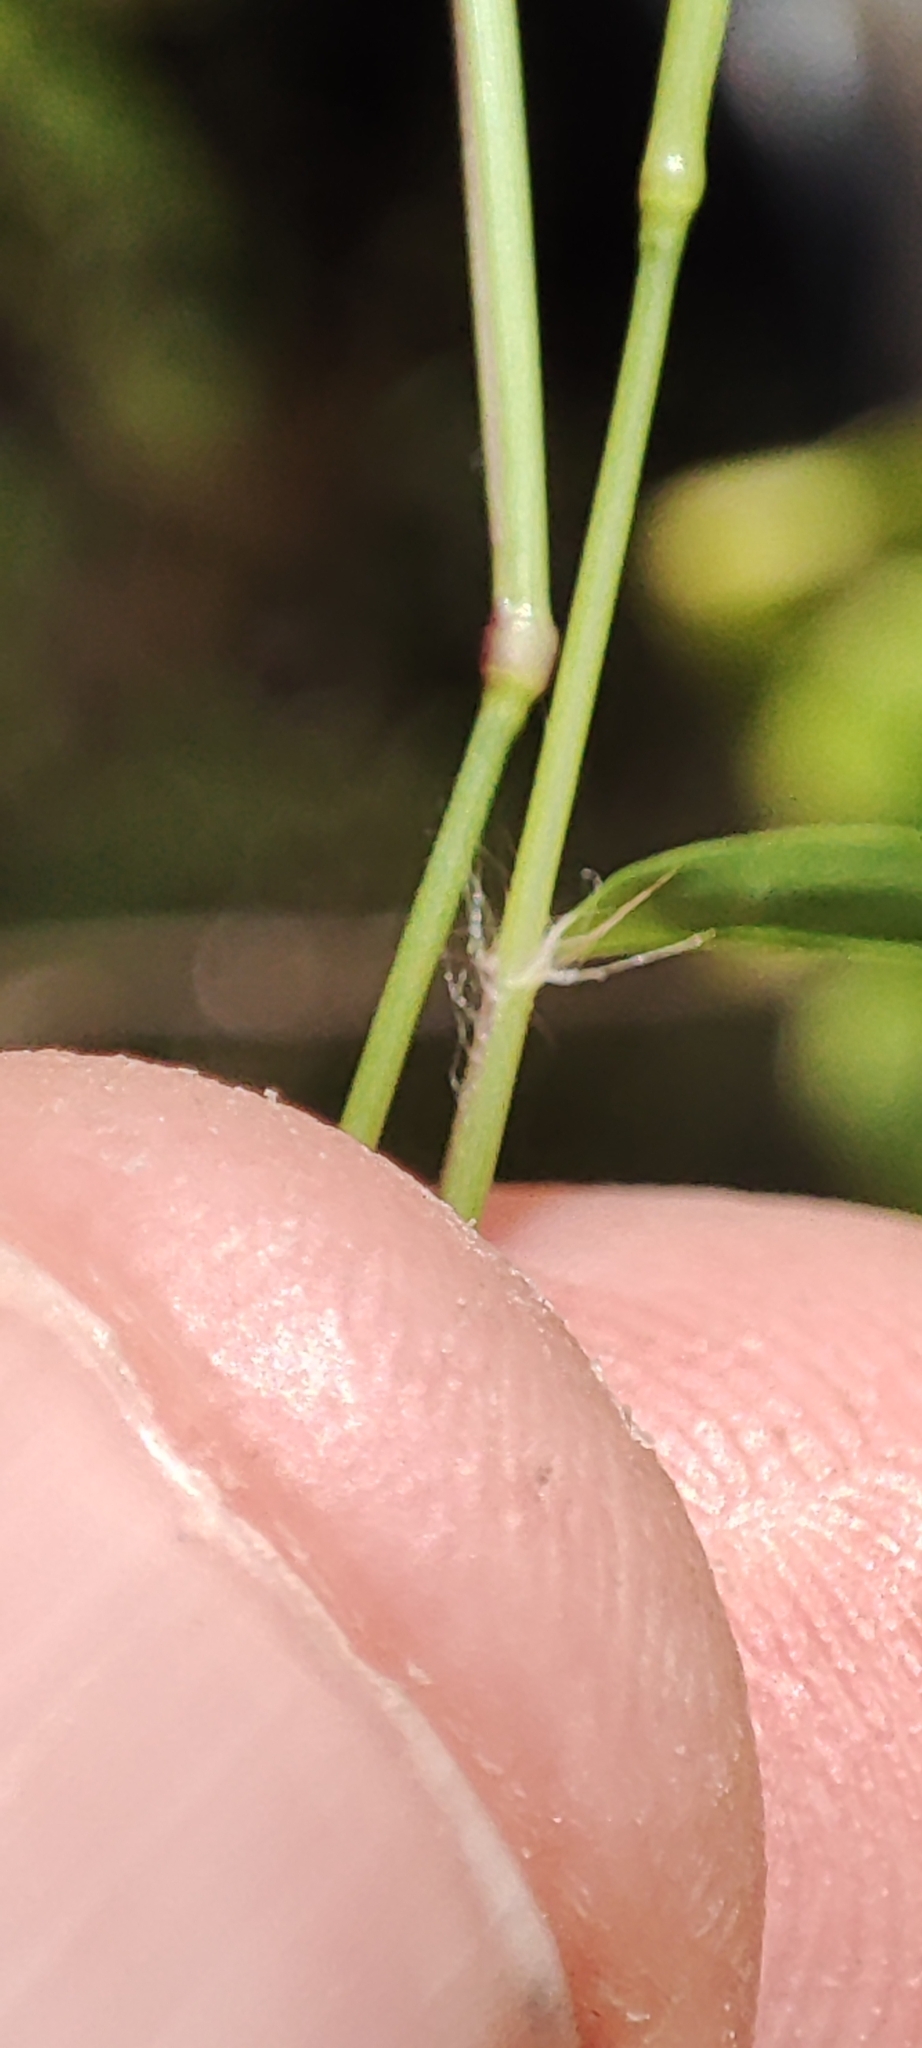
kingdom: Plantae
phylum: Tracheophyta
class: Liliopsida
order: Poales
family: Poaceae
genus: Eragrostis
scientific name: Eragrostis tenella
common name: Japanese lovegrass
